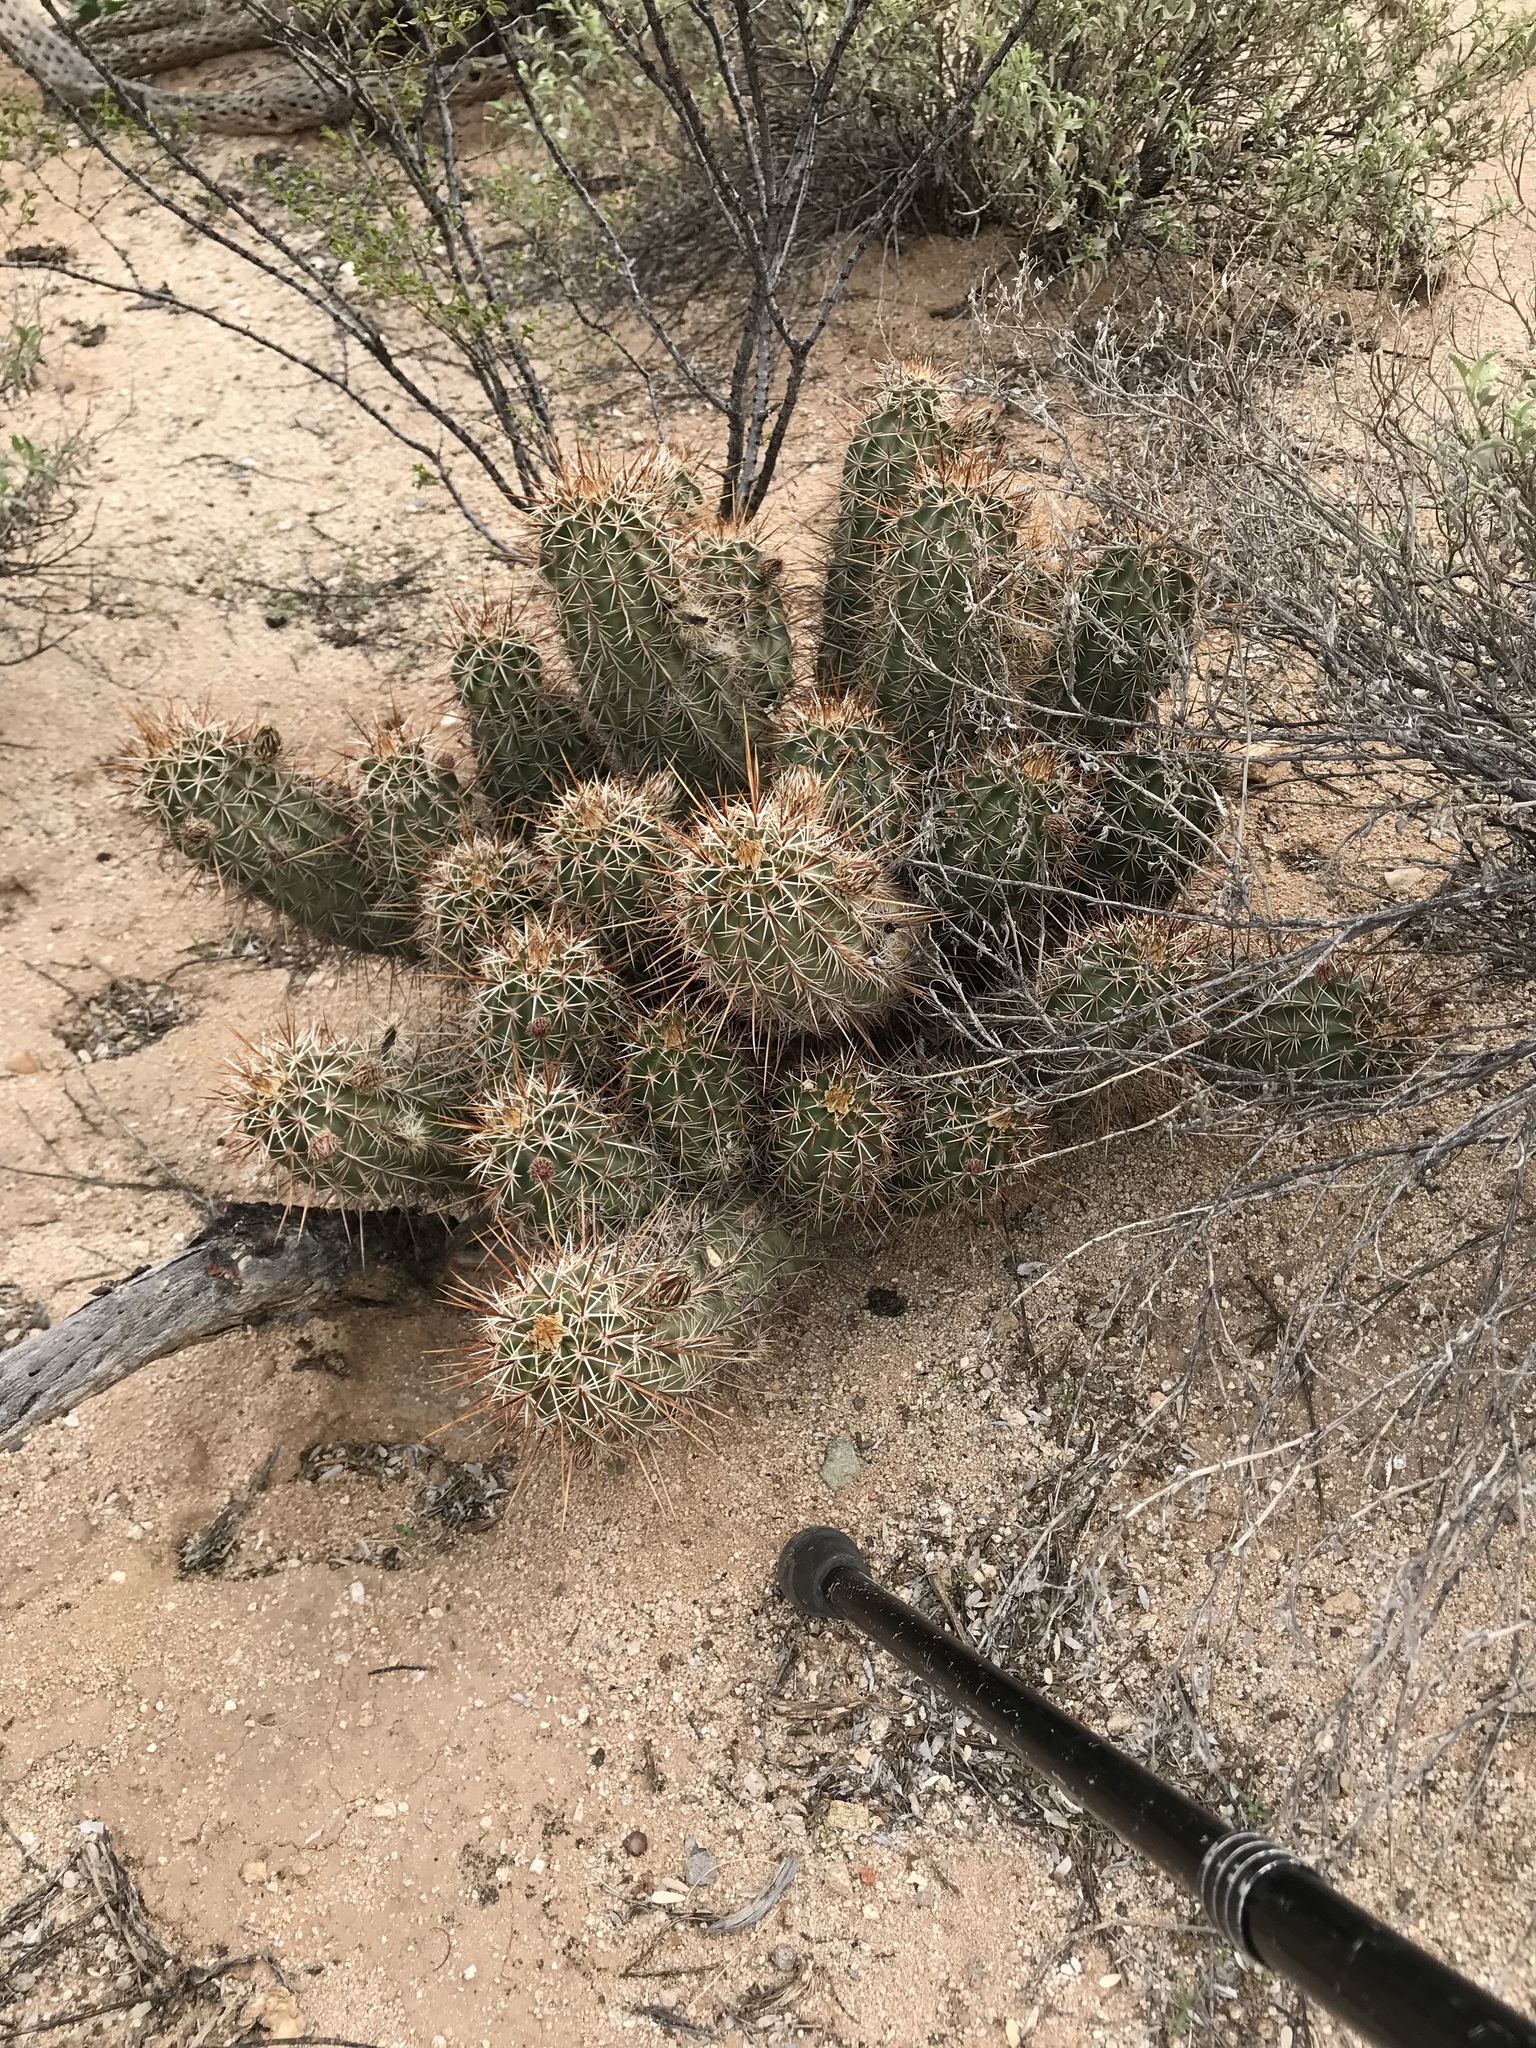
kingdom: Plantae
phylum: Tracheophyta
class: Magnoliopsida
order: Caryophyllales
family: Cactaceae
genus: Echinocereus
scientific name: Echinocereus fasciculatus
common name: Bundle hedgehog
